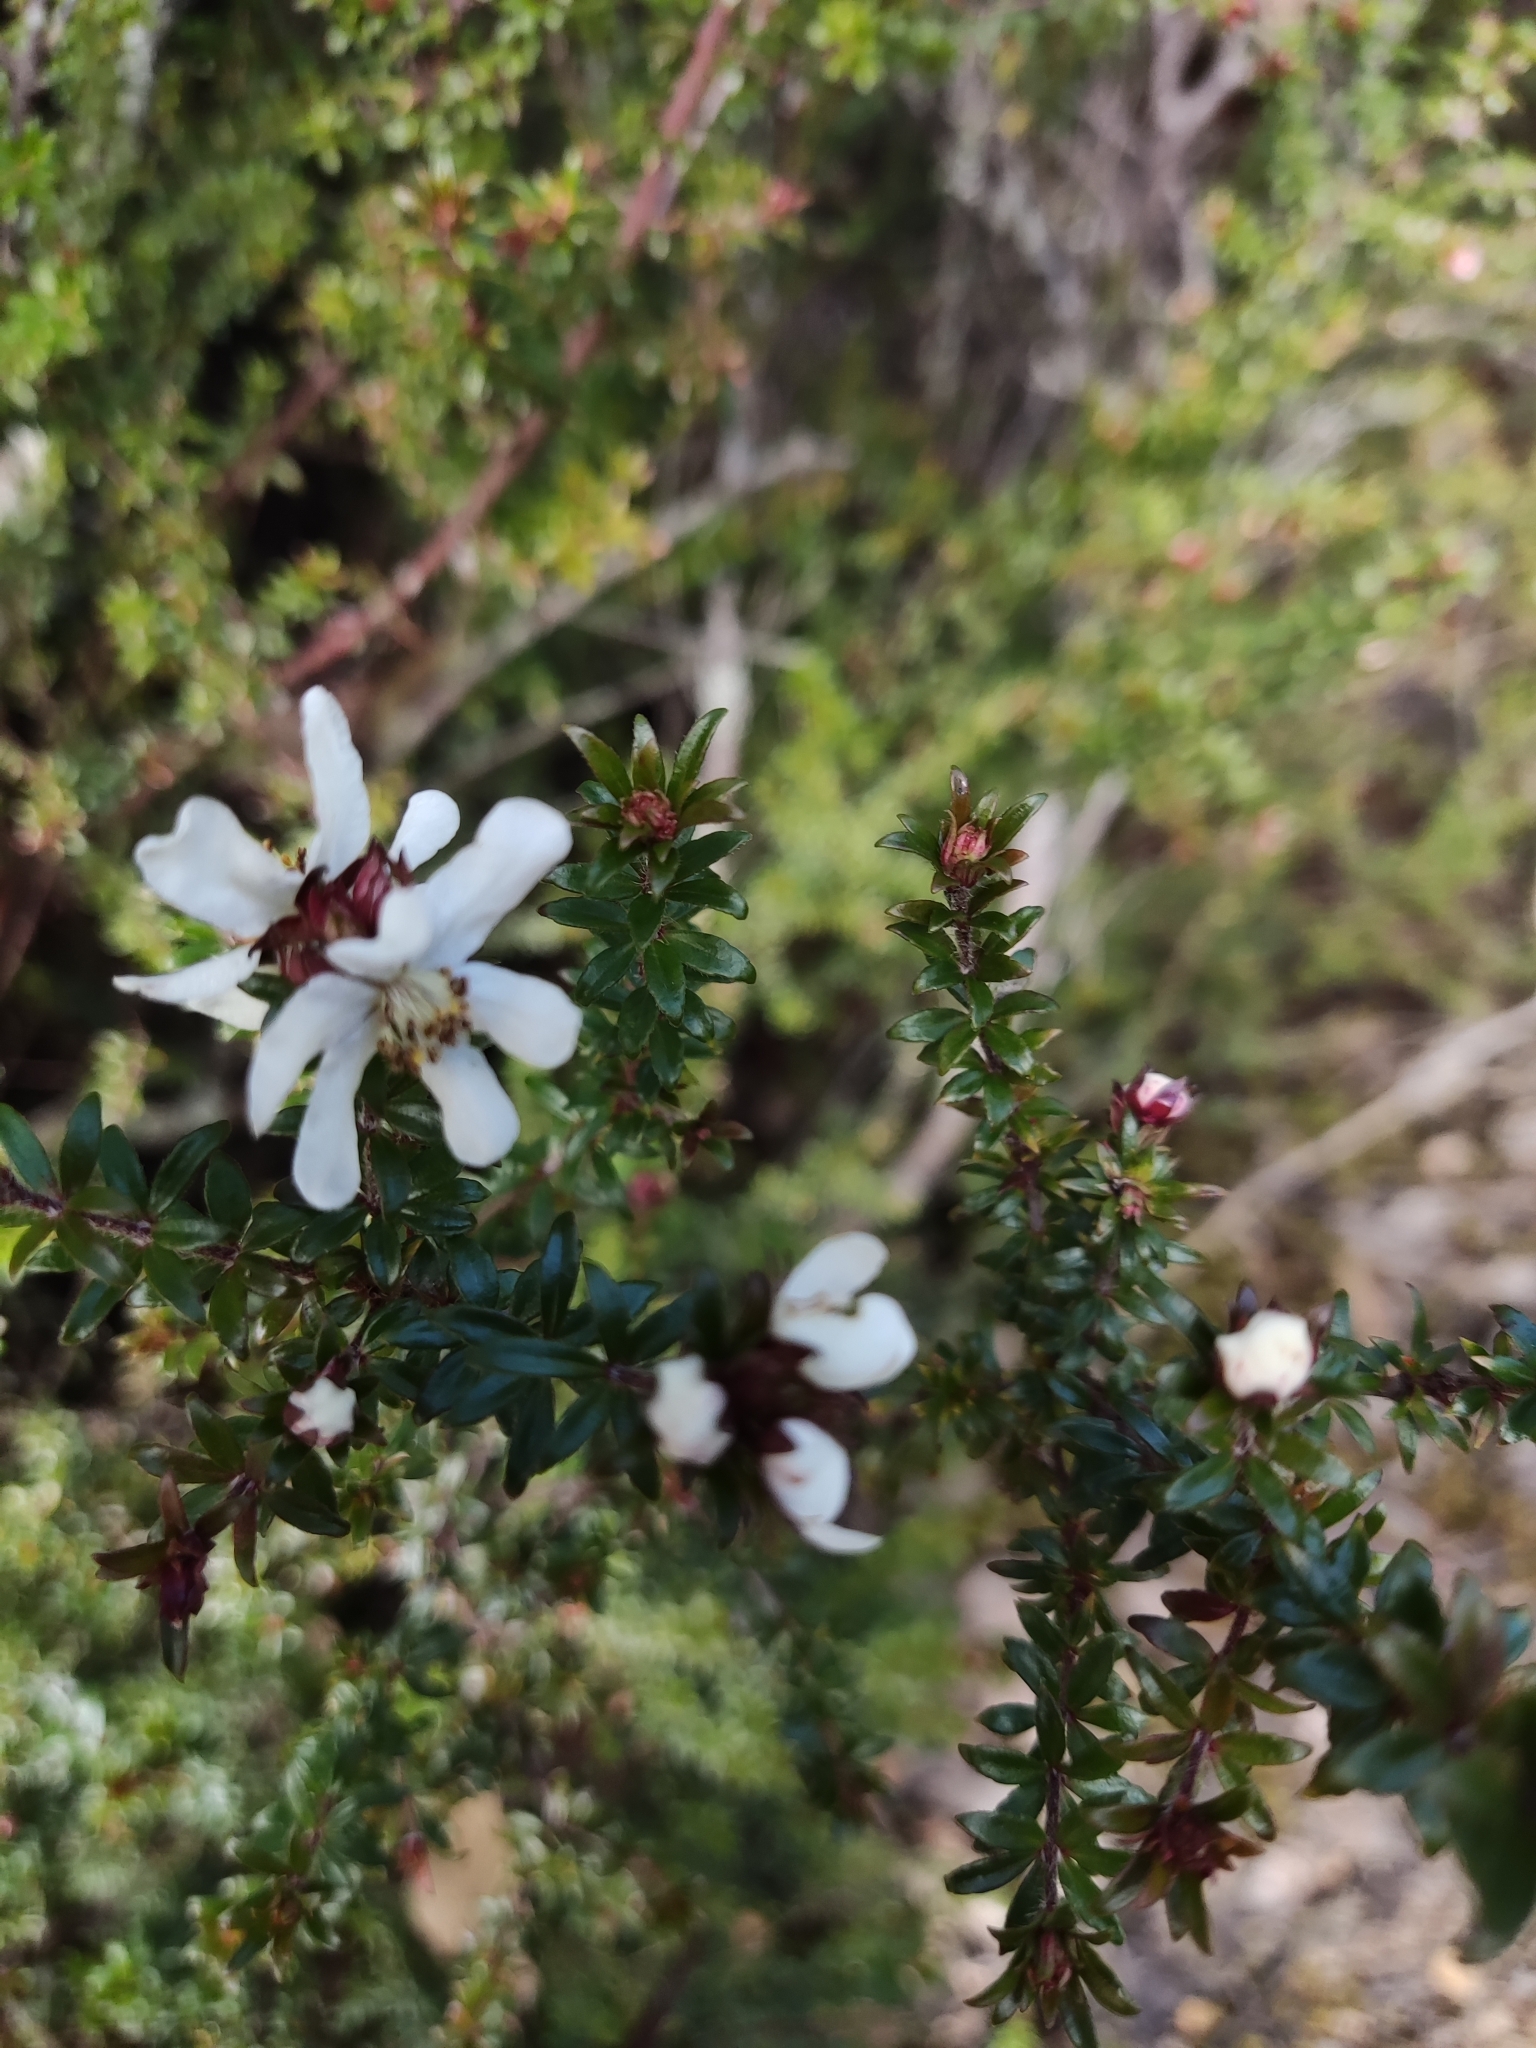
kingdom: Plantae
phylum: Tracheophyta
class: Magnoliopsida
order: Oxalidales
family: Cunoniaceae
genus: Bauera
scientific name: Bauera rubioides
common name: River-rose
